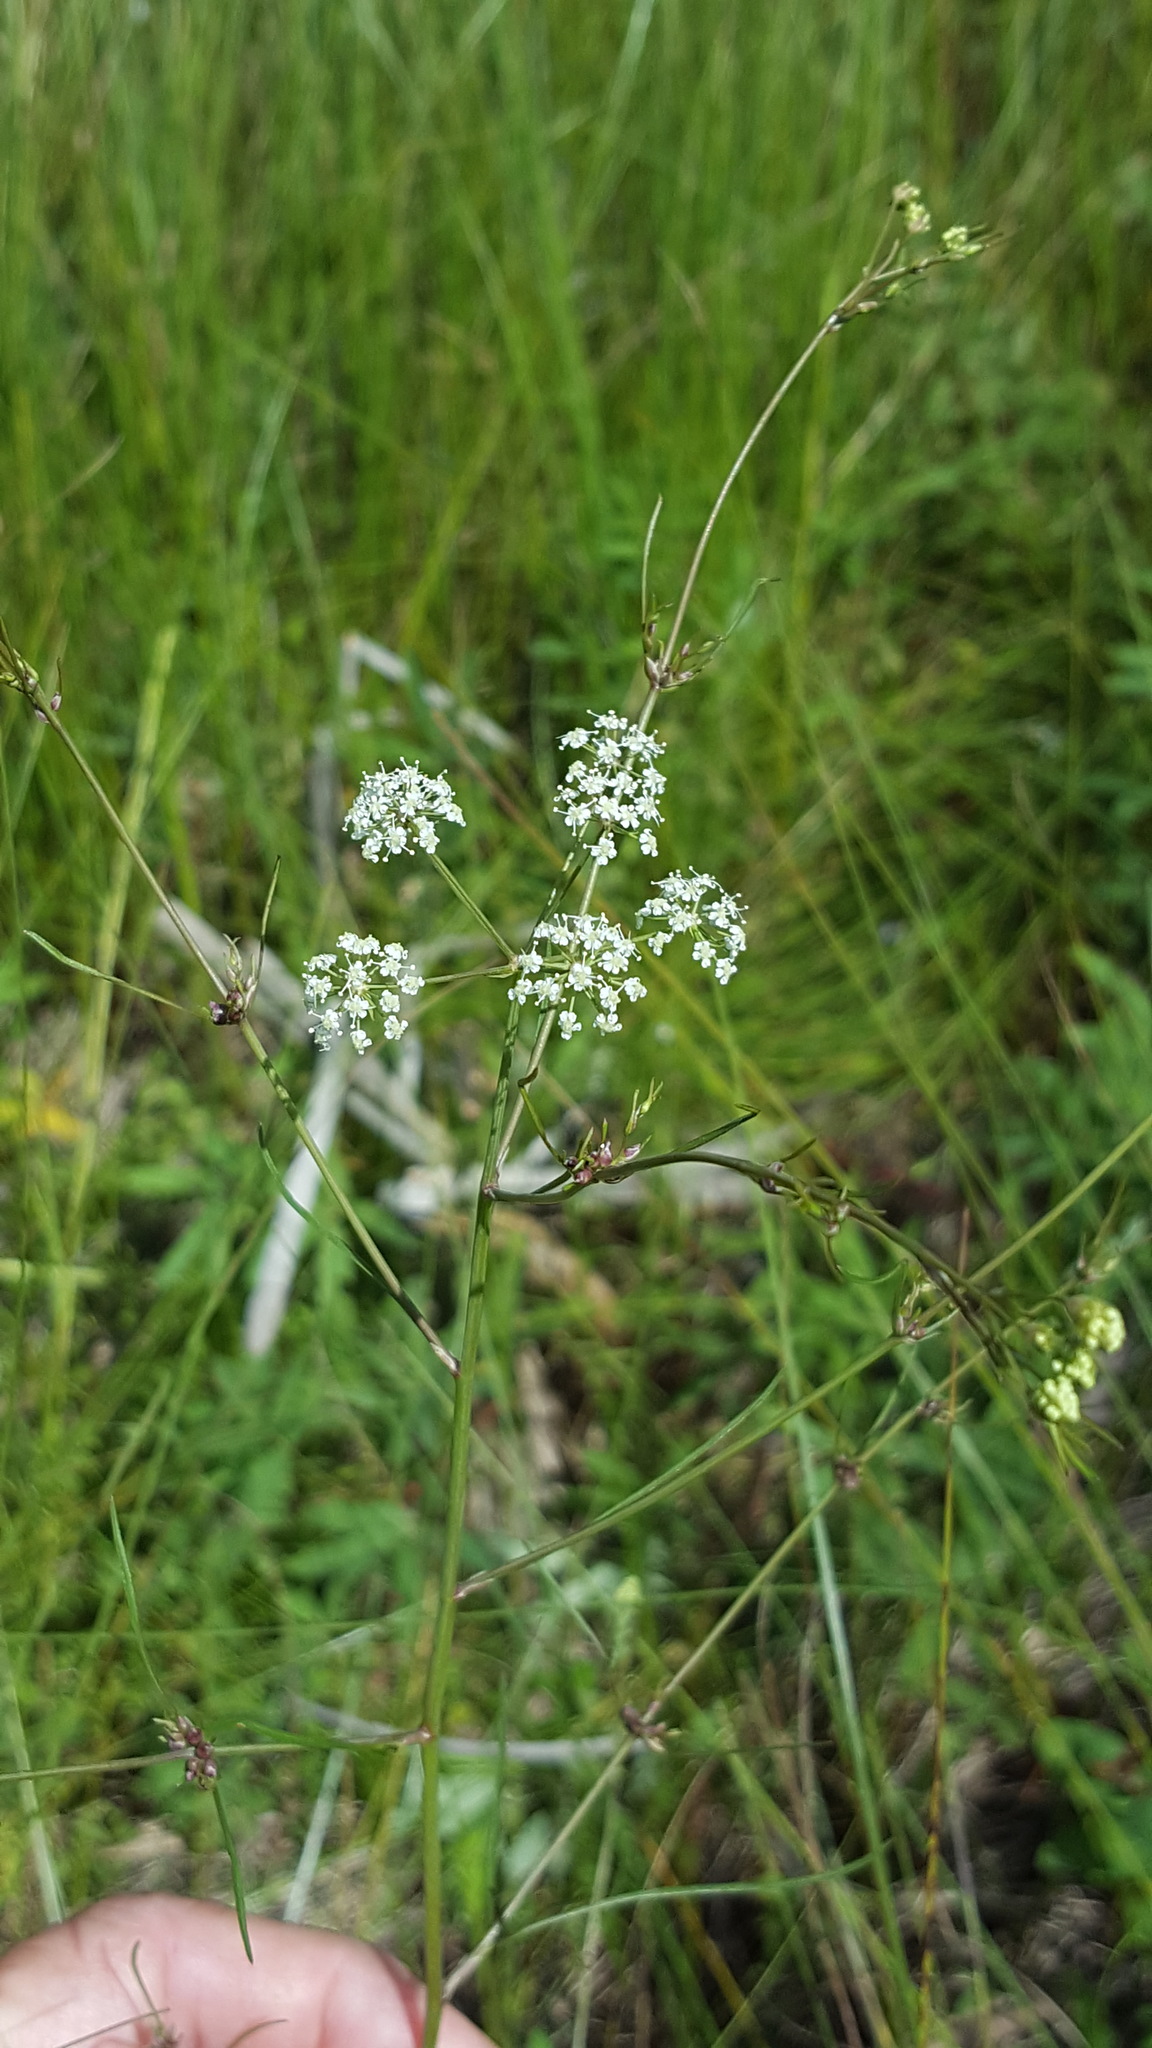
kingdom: Plantae
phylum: Tracheophyta
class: Magnoliopsida
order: Apiales
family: Apiaceae
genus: Cicuta
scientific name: Cicuta bulbifera
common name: Bulb-bearing water-hemlock
